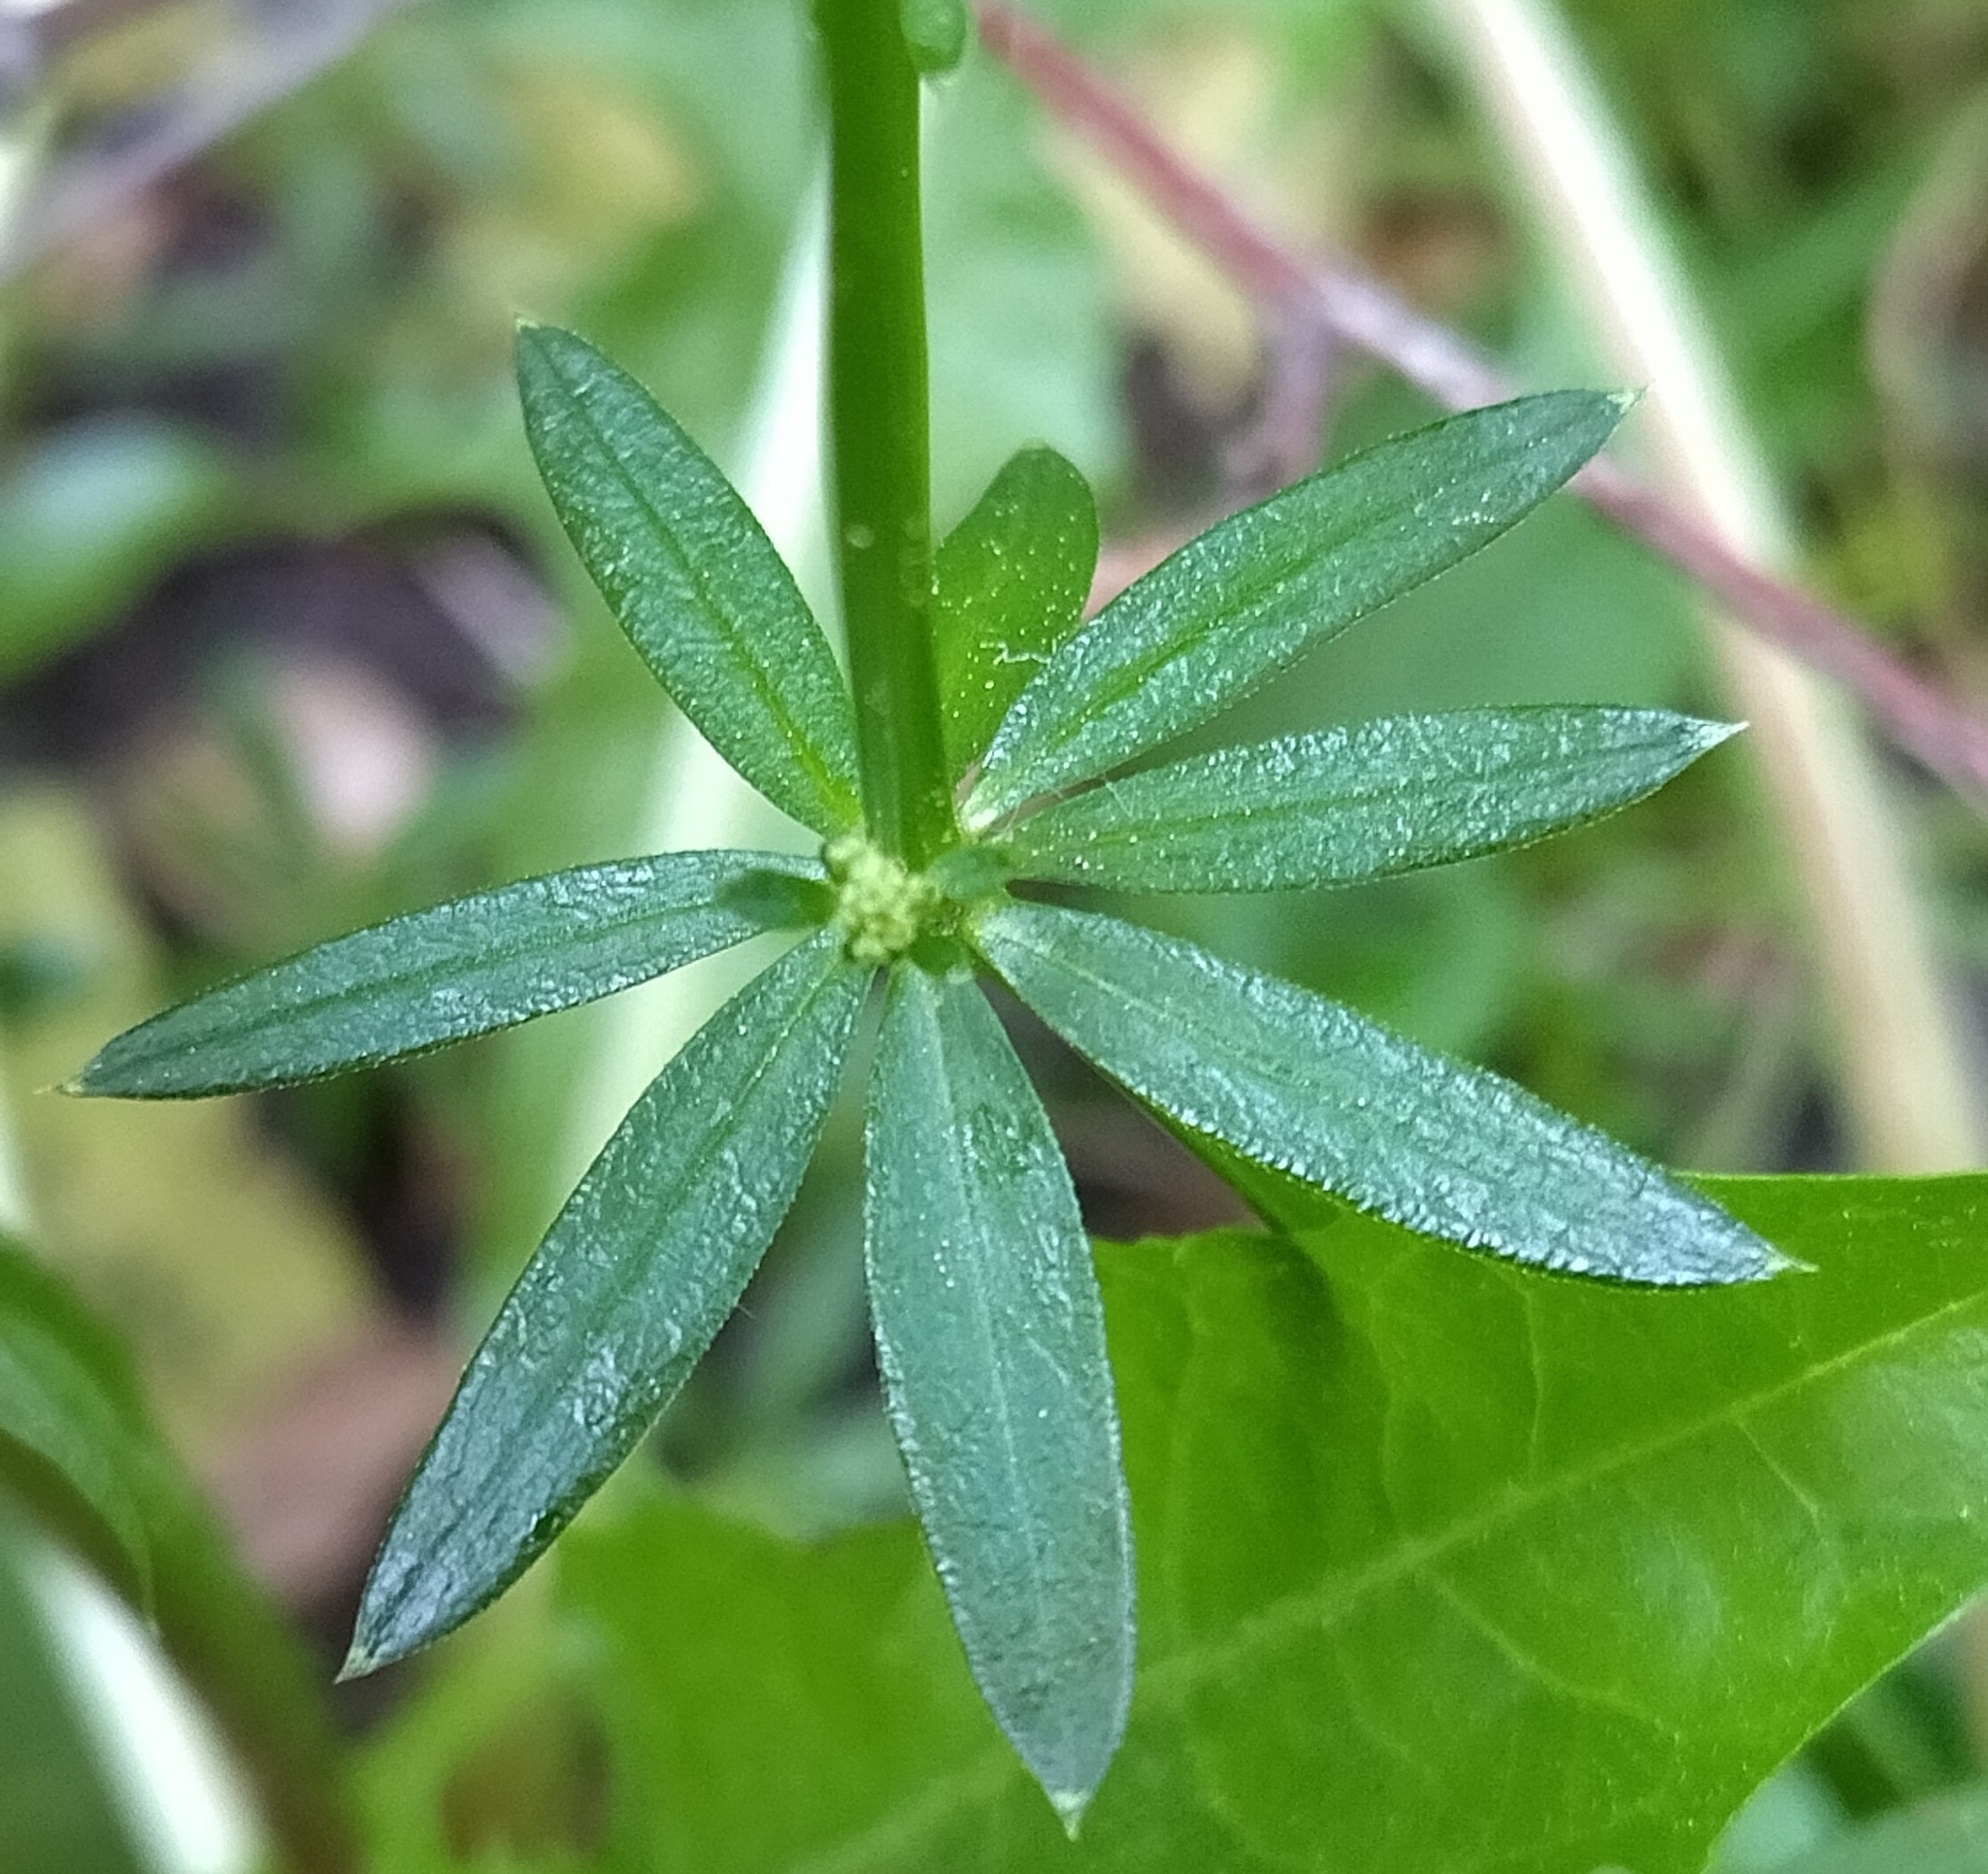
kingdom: Plantae
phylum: Tracheophyta
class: Magnoliopsida
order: Gentianales
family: Rubiaceae
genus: Galium
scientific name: Galium mollugo
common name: Hedge bedstraw
